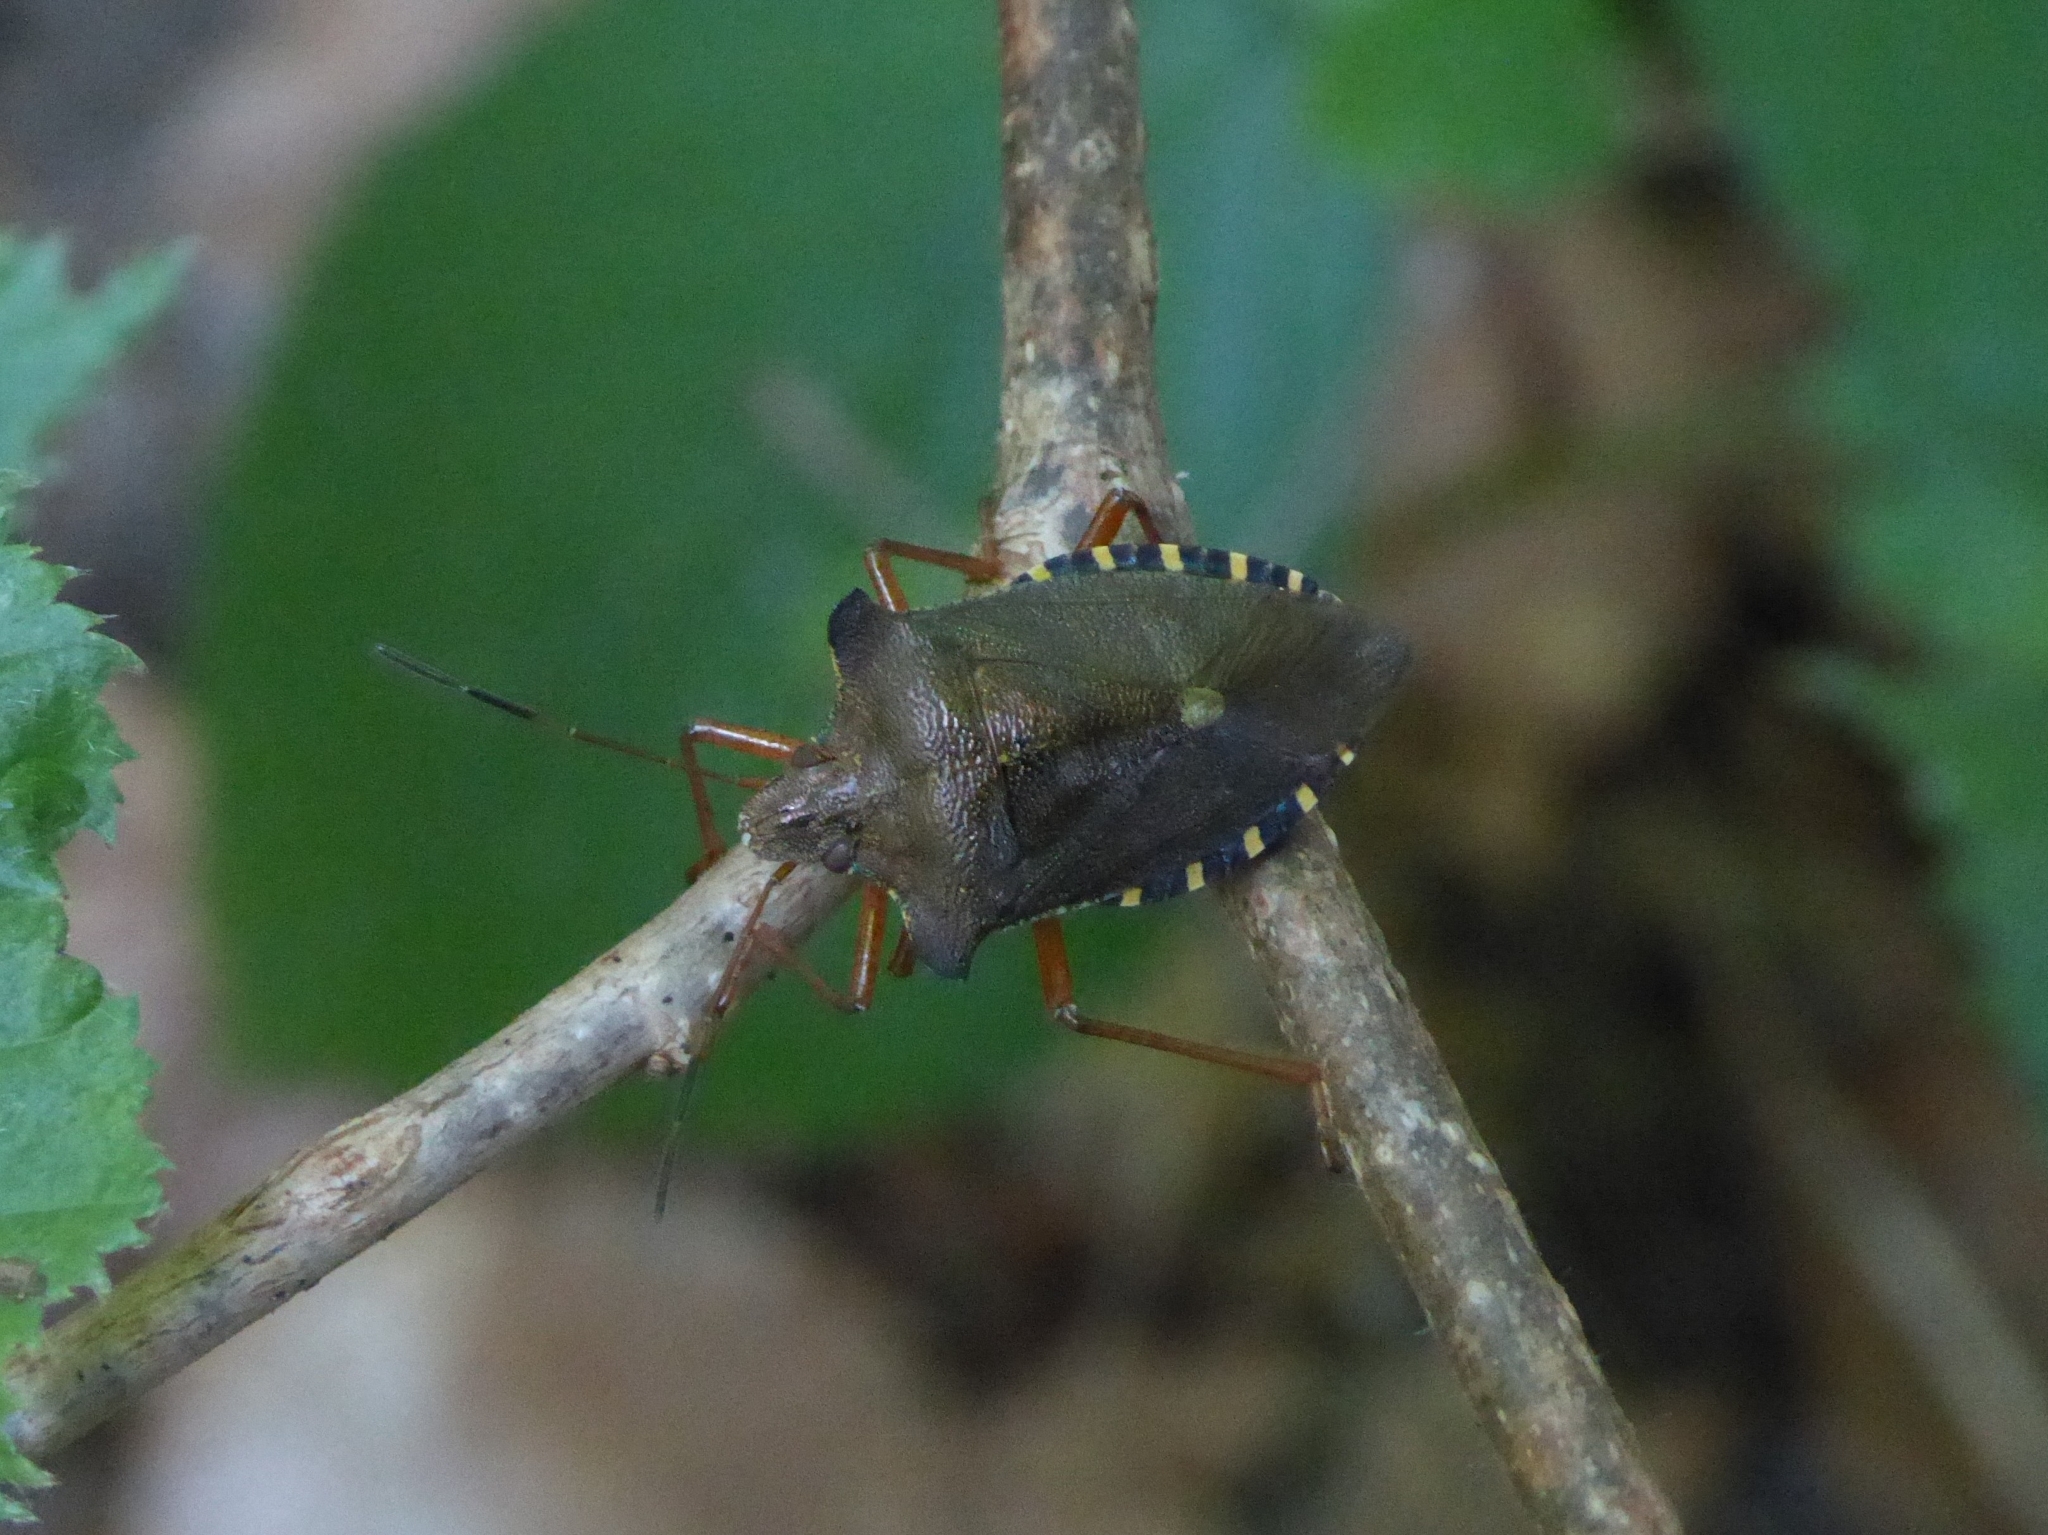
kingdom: Animalia
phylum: Arthropoda
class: Insecta
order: Hemiptera
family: Pentatomidae
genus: Pentatoma
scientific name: Pentatoma rufipes
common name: Forest bug
